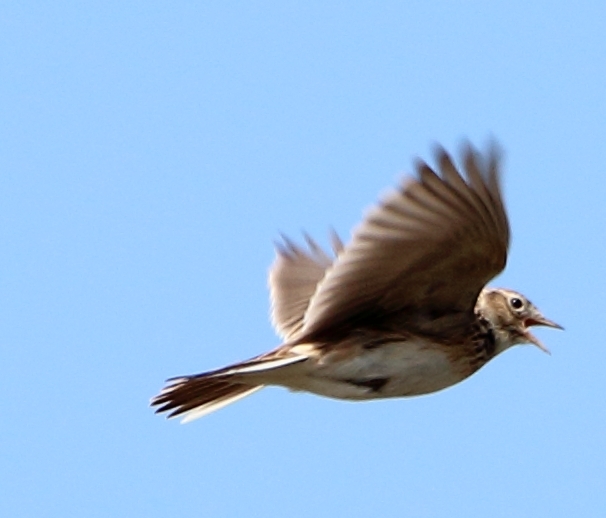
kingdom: Animalia
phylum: Chordata
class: Aves
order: Passeriformes
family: Alaudidae
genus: Alauda
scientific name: Alauda arvensis
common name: Eurasian skylark
